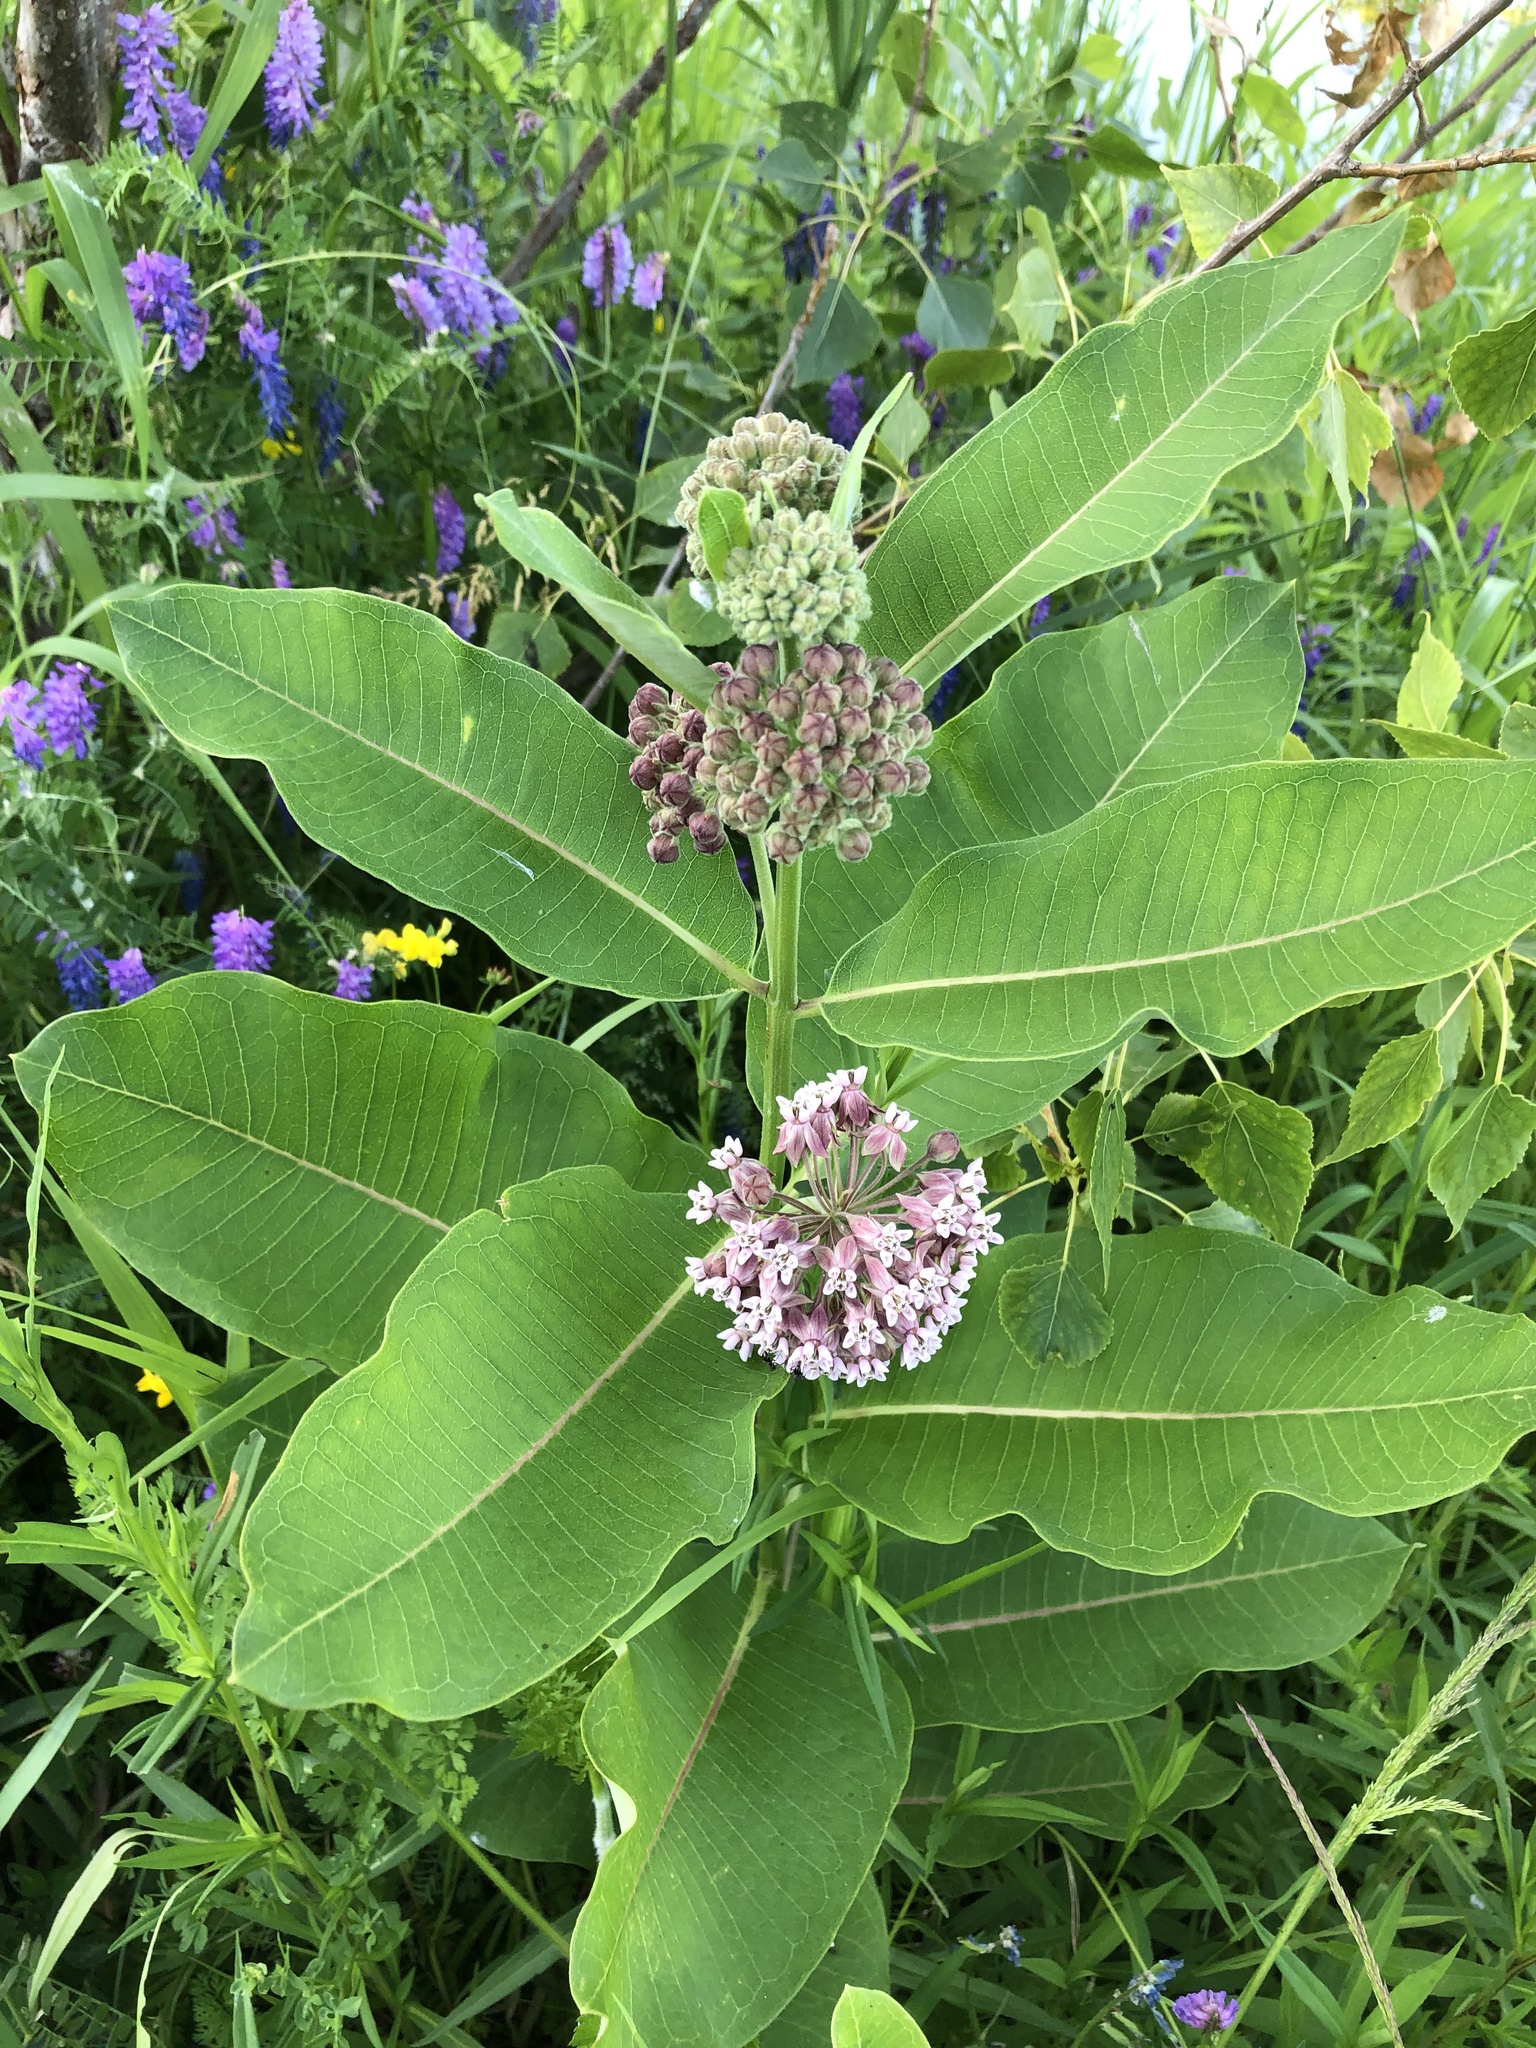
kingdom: Plantae
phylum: Tracheophyta
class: Magnoliopsida
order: Gentianales
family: Apocynaceae
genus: Asclepias
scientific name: Asclepias syriaca
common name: Common milkweed
